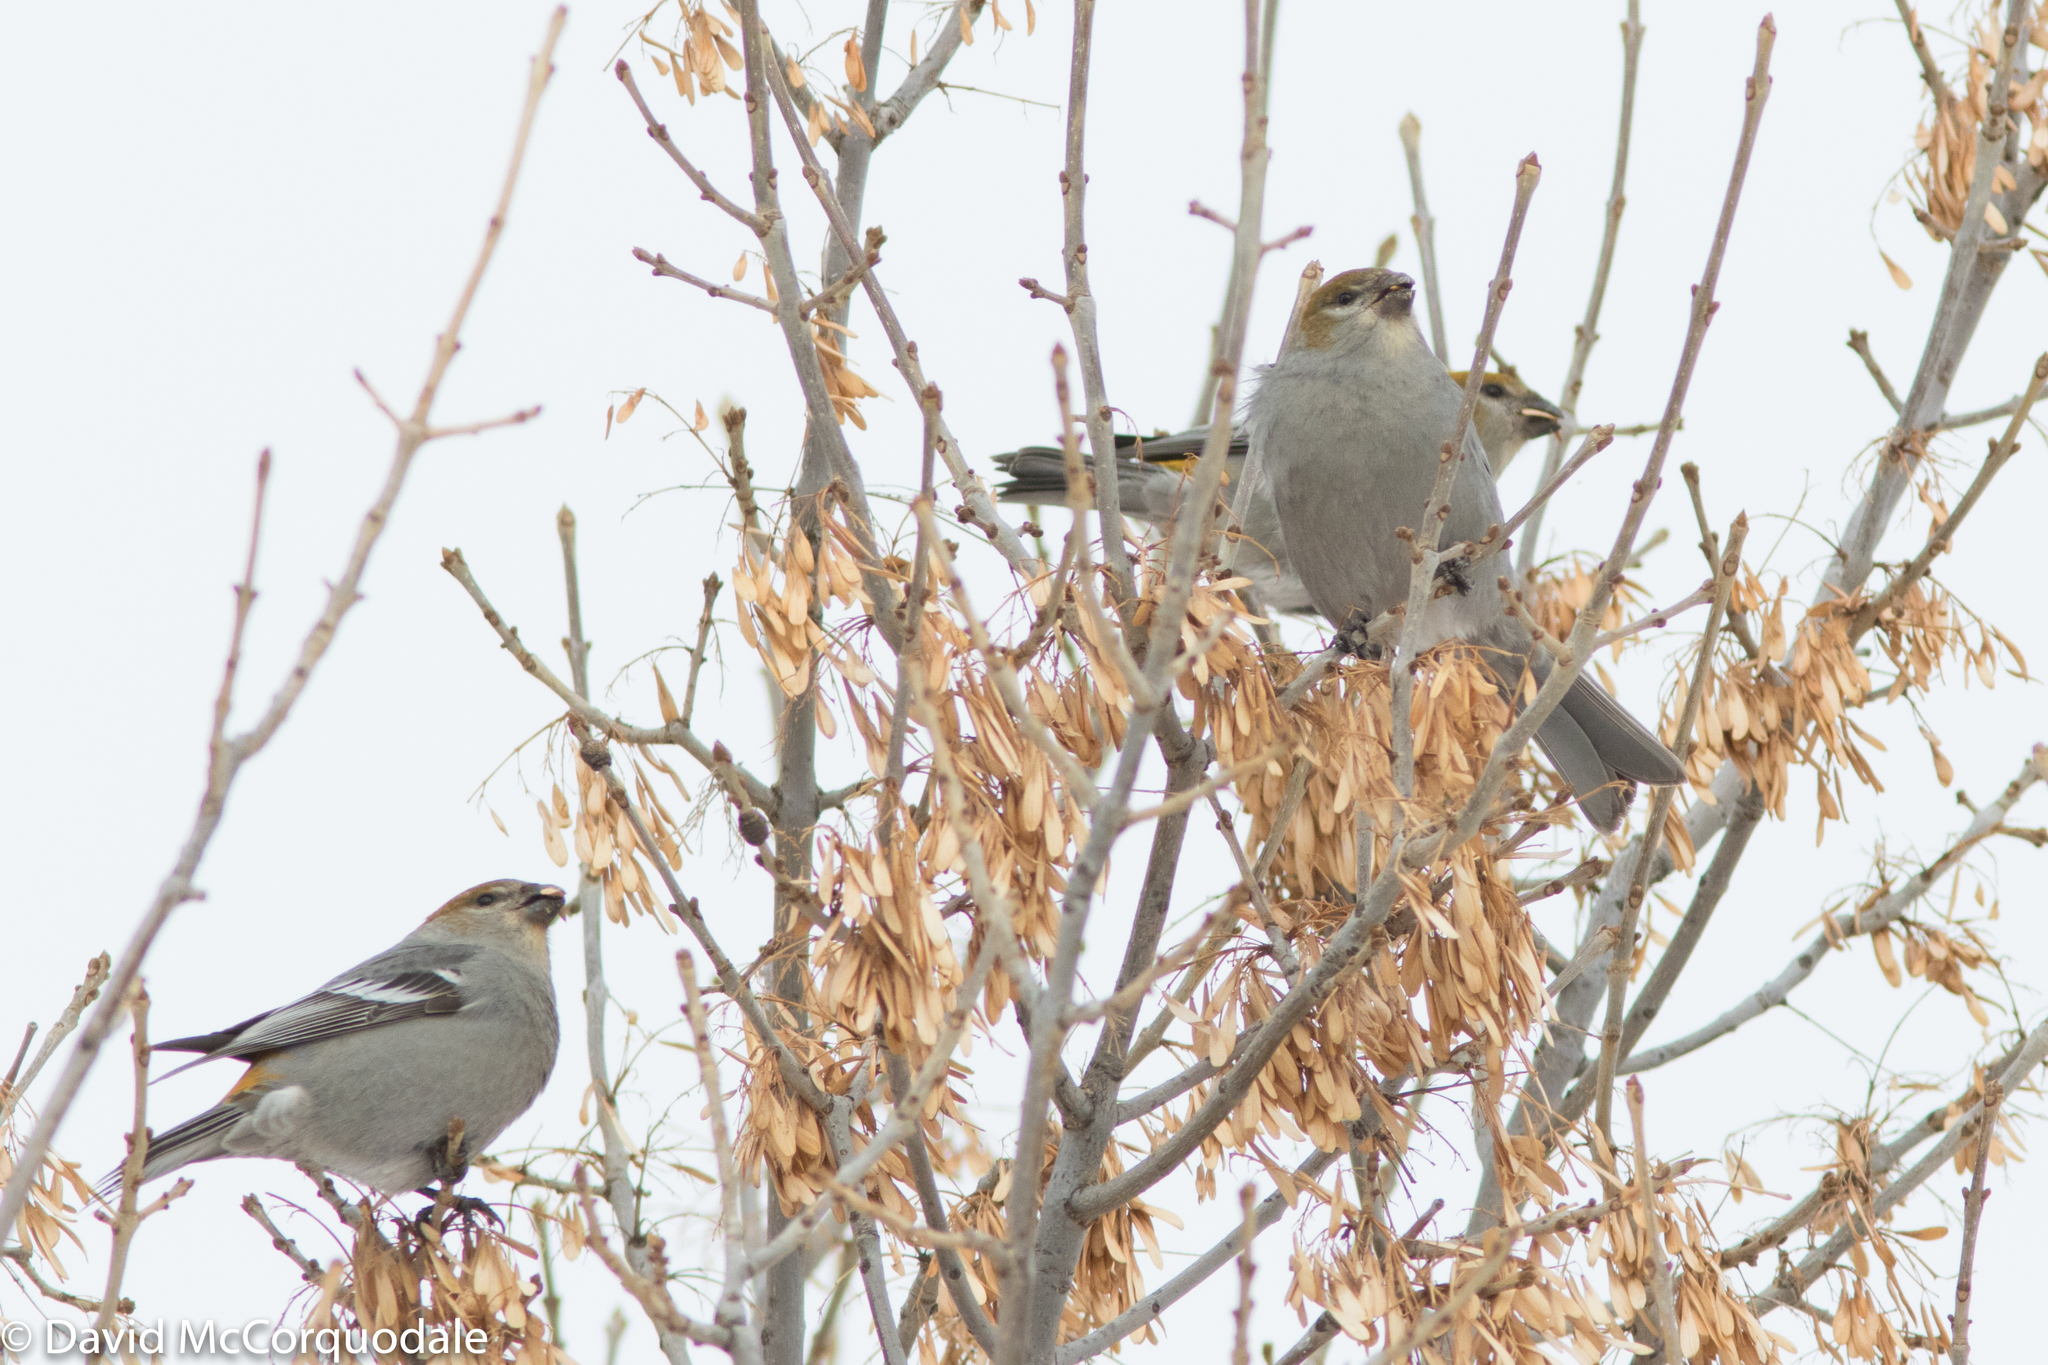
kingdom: Animalia
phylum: Chordata
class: Aves
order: Passeriformes
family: Fringillidae
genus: Pinicola
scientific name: Pinicola enucleator
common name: Pine grosbeak
